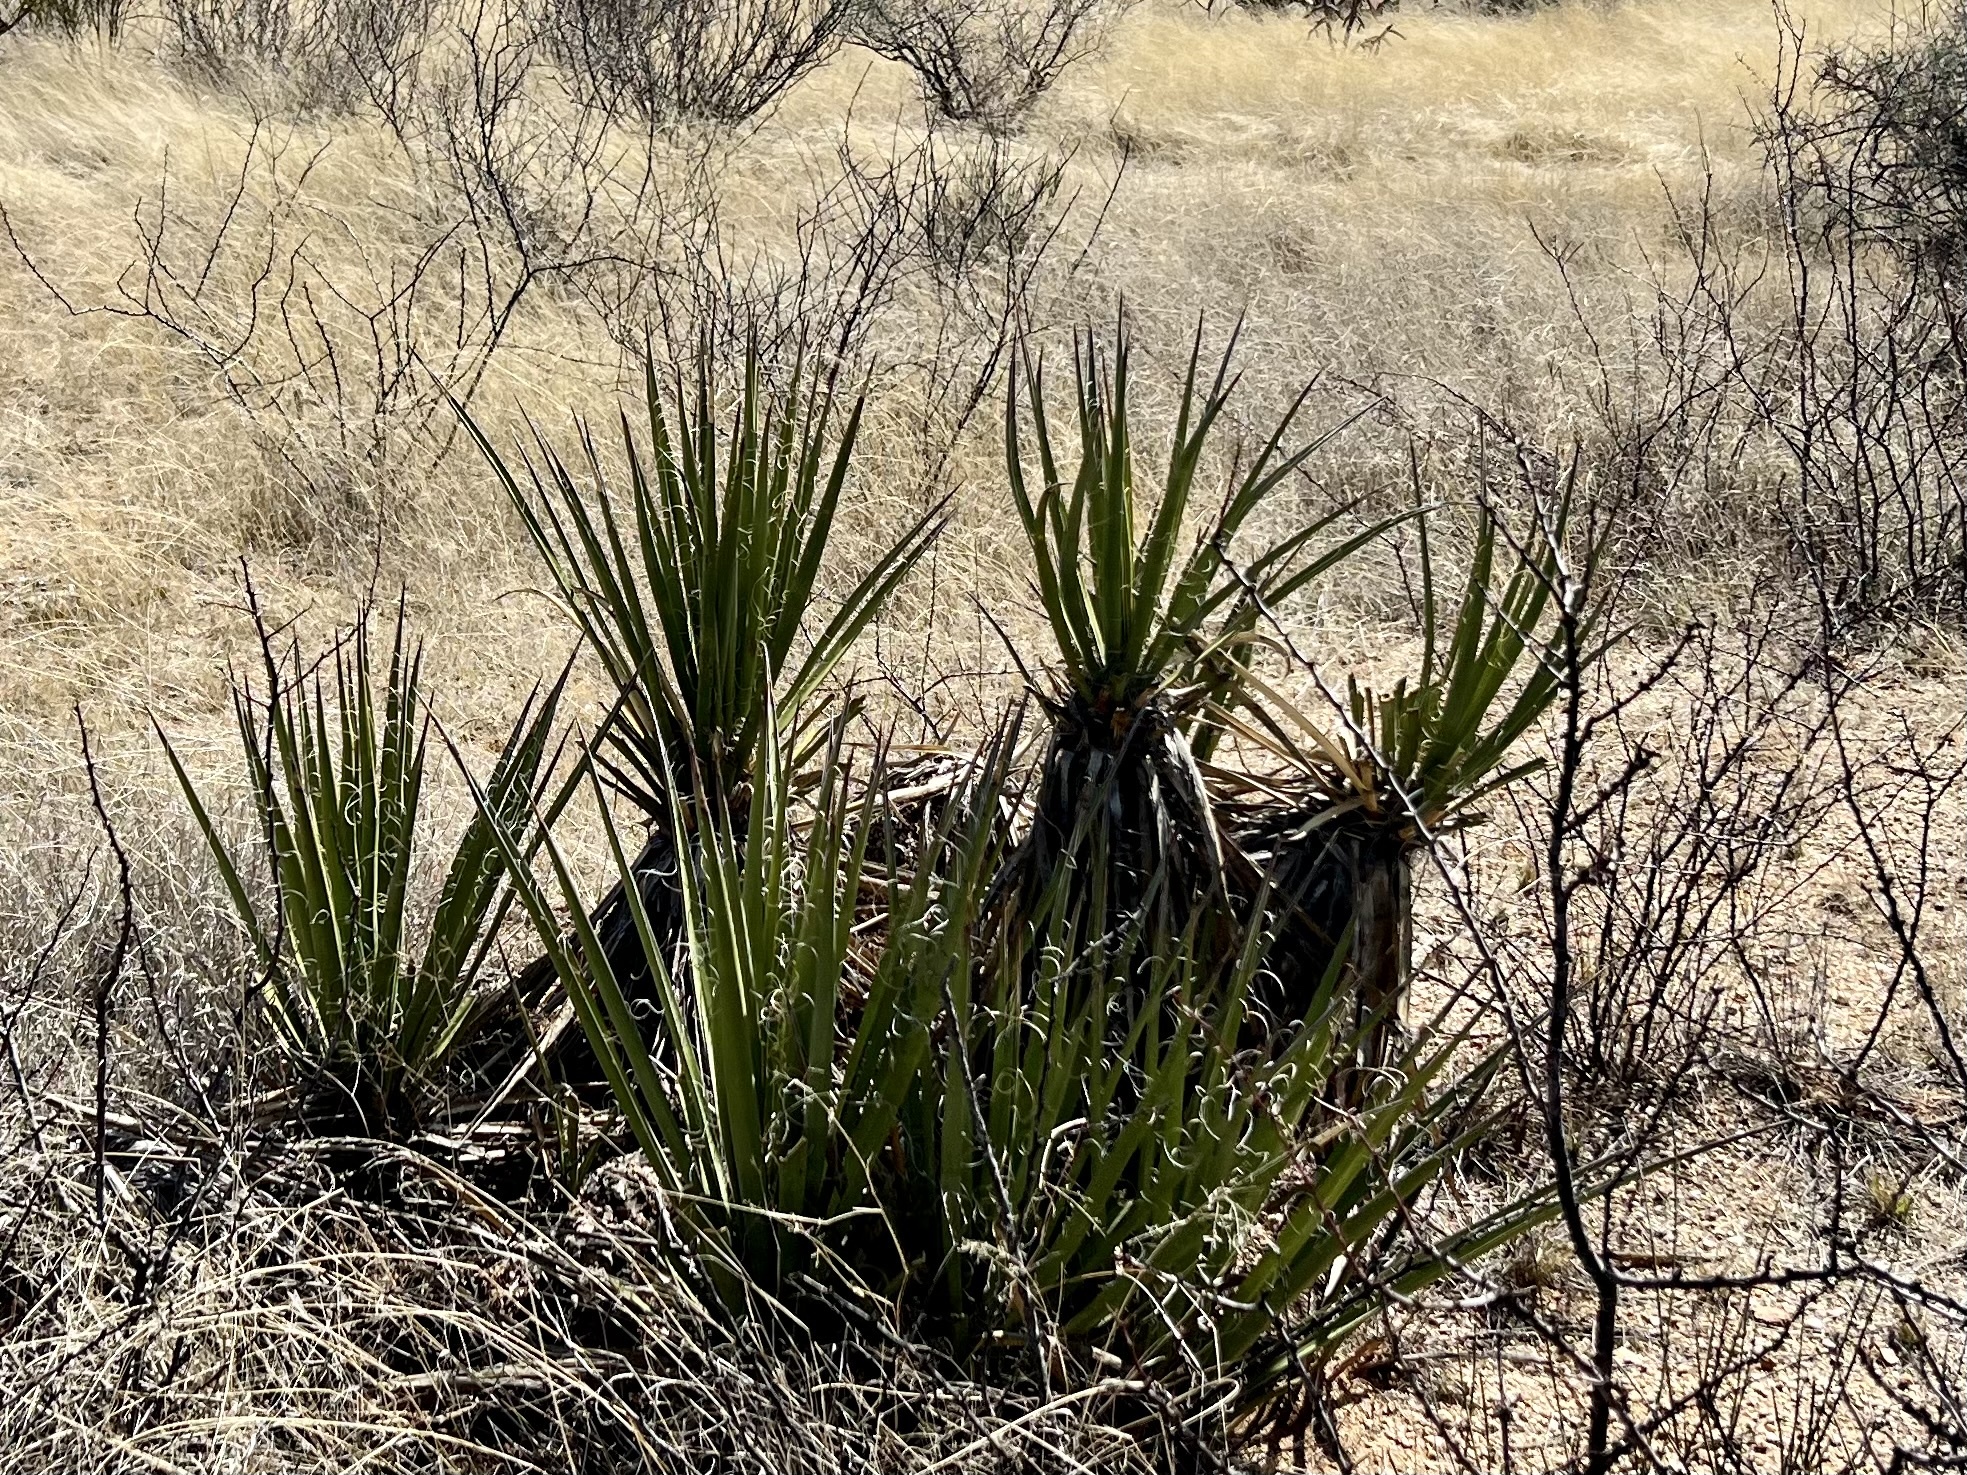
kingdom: Plantae
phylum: Tracheophyta
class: Liliopsida
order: Asparagales
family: Asparagaceae
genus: Yucca
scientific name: Yucca baccata
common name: Banana yucca
